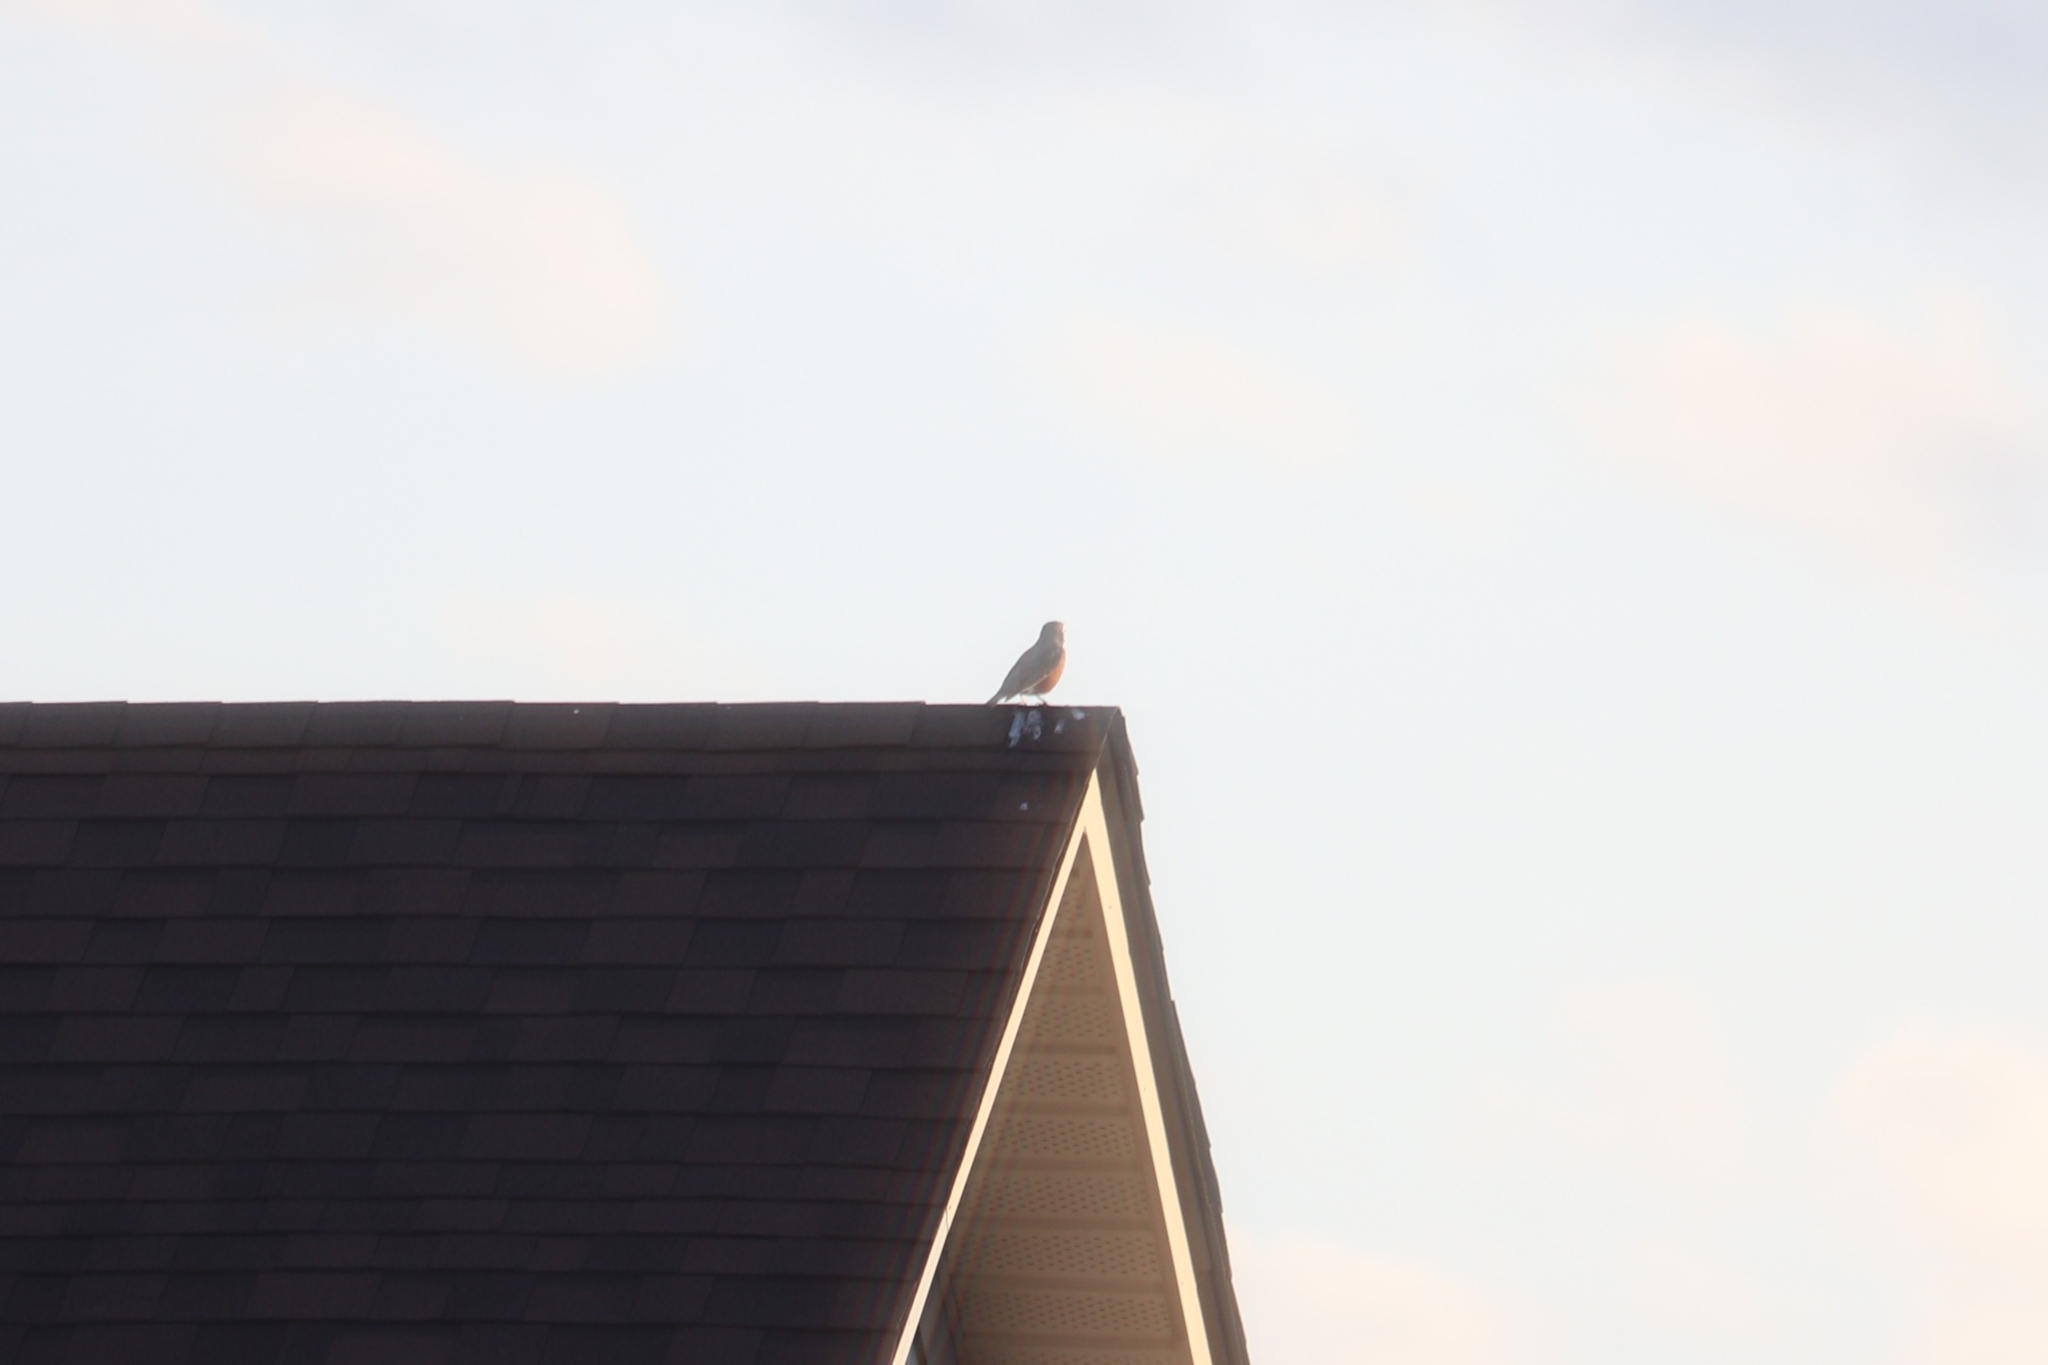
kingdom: Animalia
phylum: Chordata
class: Aves
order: Passeriformes
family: Turdidae
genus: Turdus
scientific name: Turdus migratorius
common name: American robin
